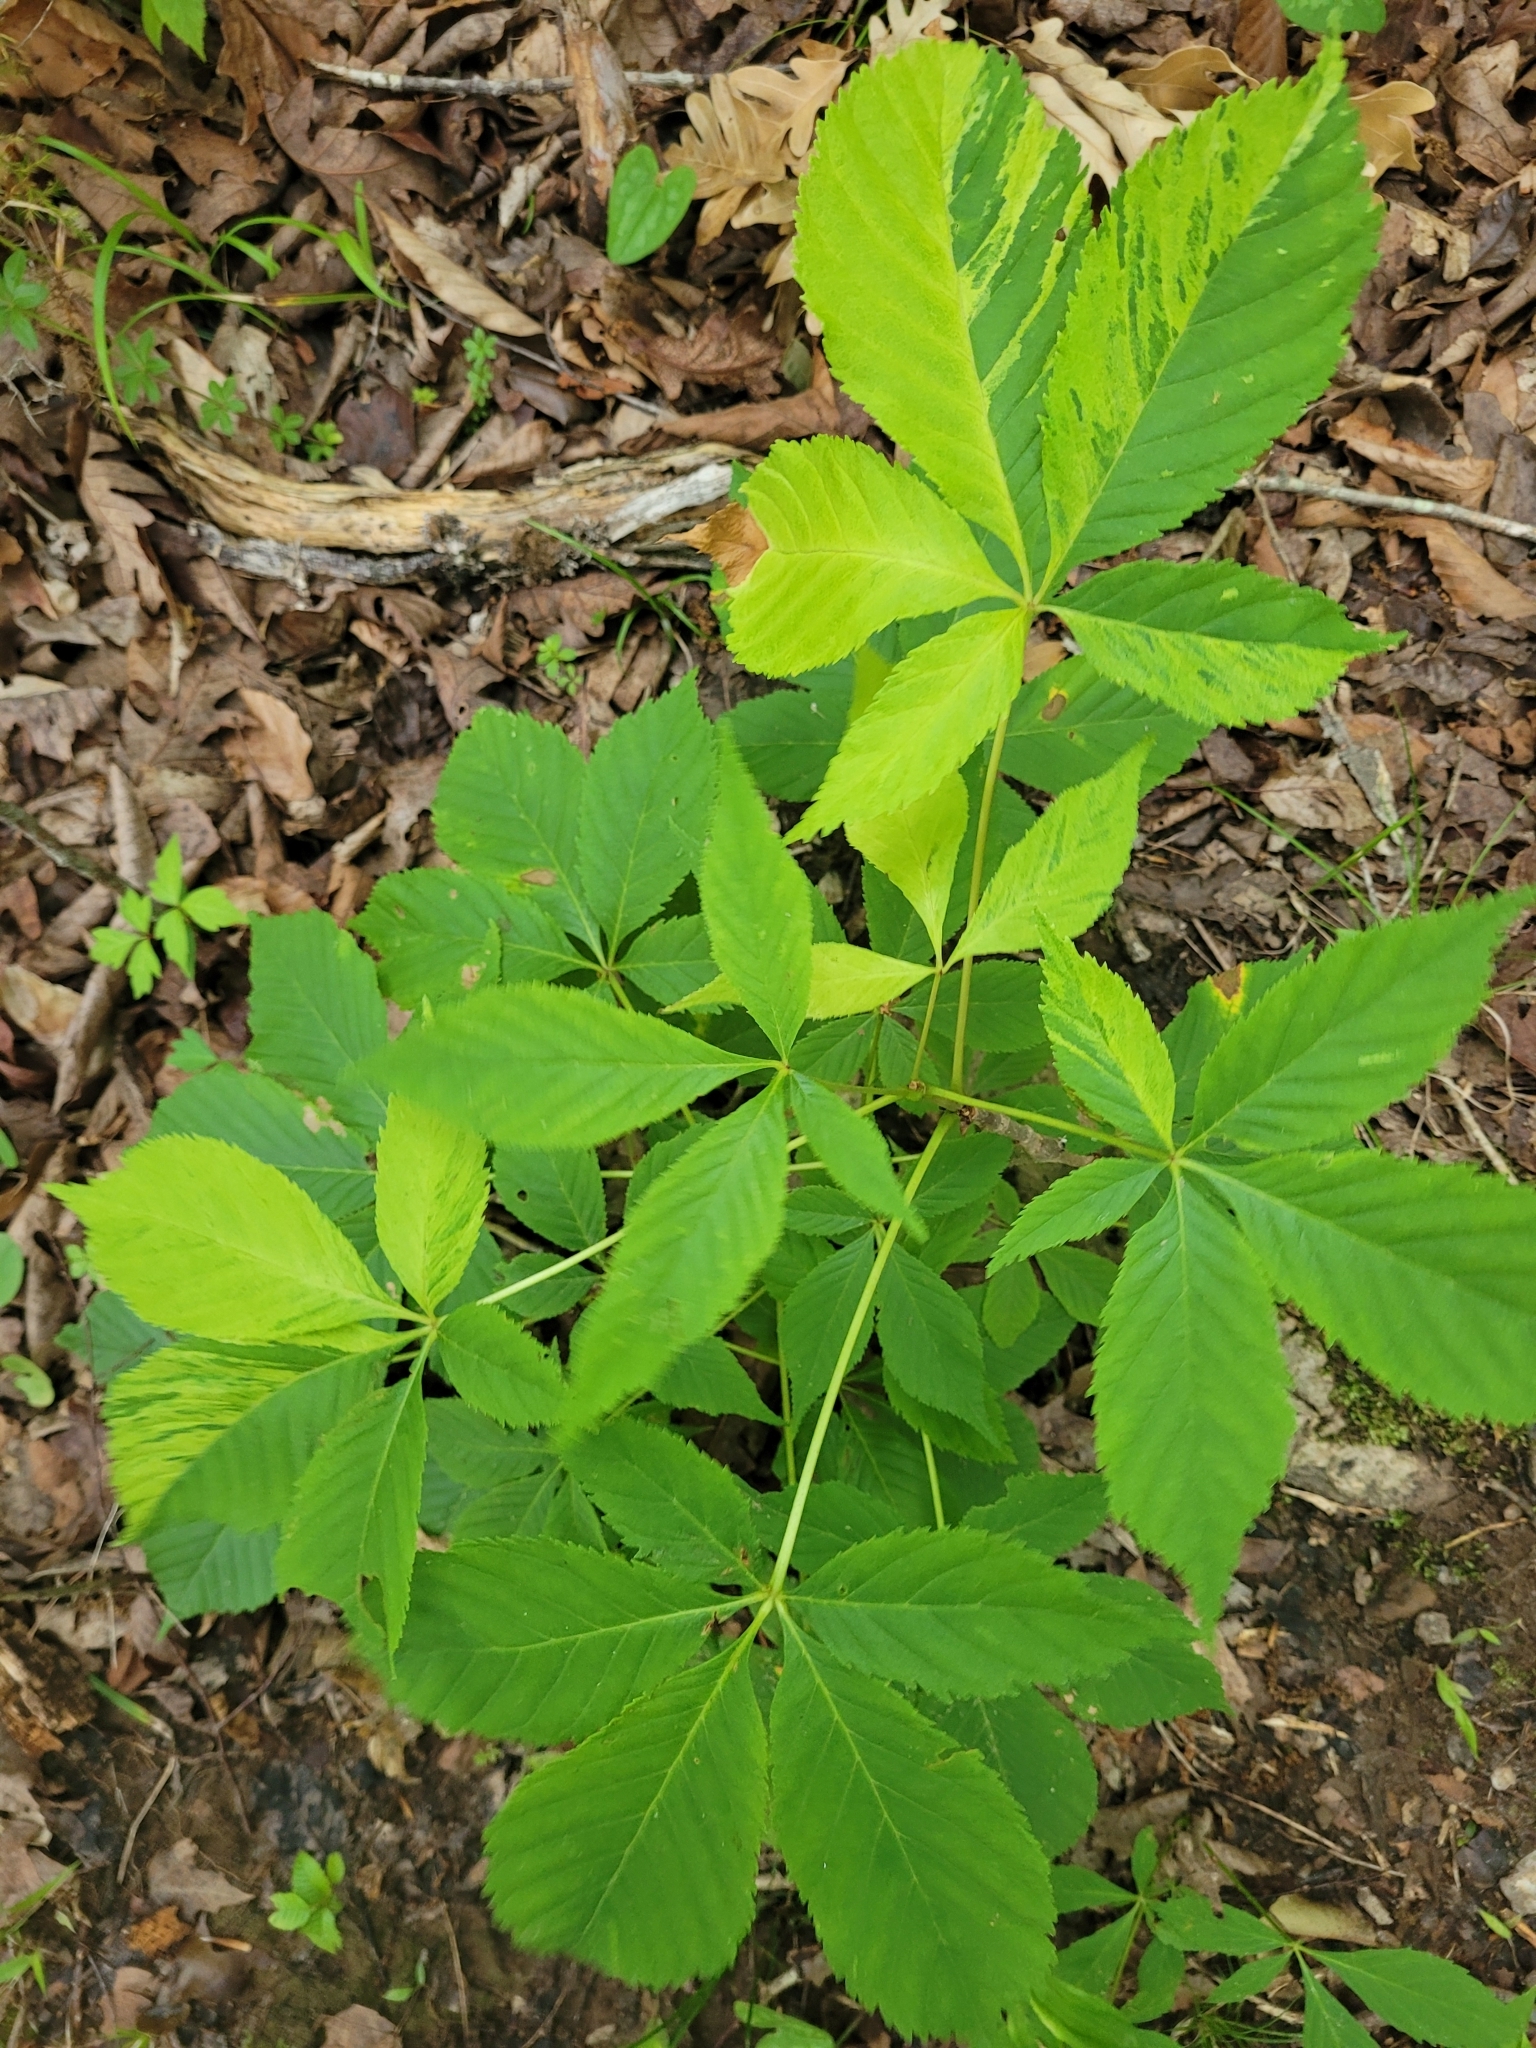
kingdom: Plantae
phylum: Tracheophyta
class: Magnoliopsida
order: Sapindales
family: Sapindaceae
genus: Aesculus
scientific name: Aesculus sylvatica
